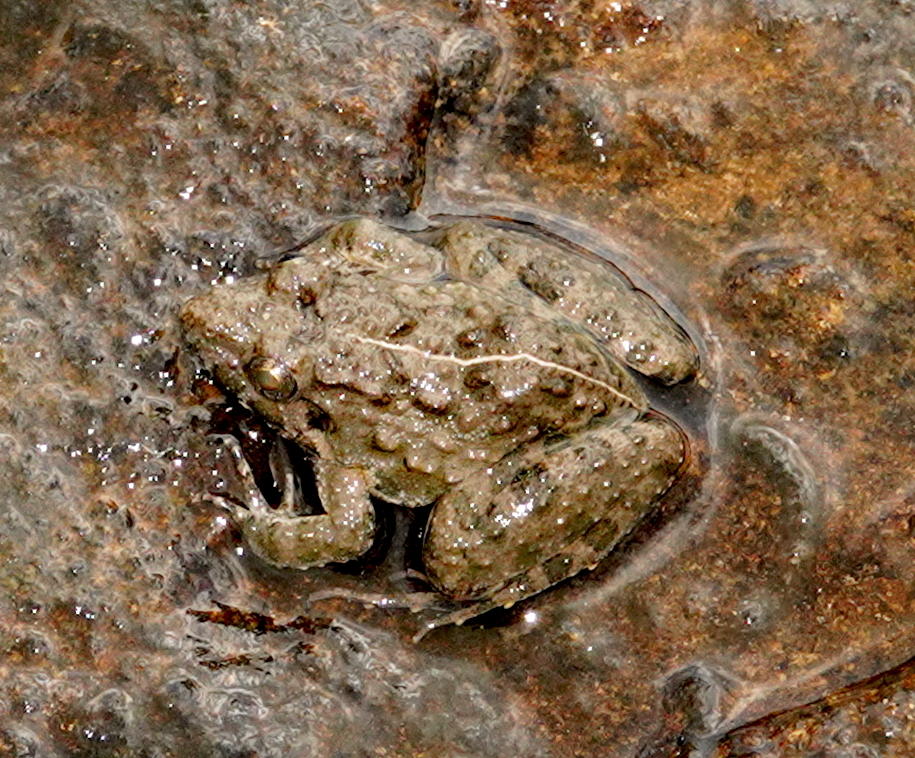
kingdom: Animalia
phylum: Chordata
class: Amphibia
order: Anura
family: Dicroglossidae
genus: Minervarya
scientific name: Minervarya agricola
